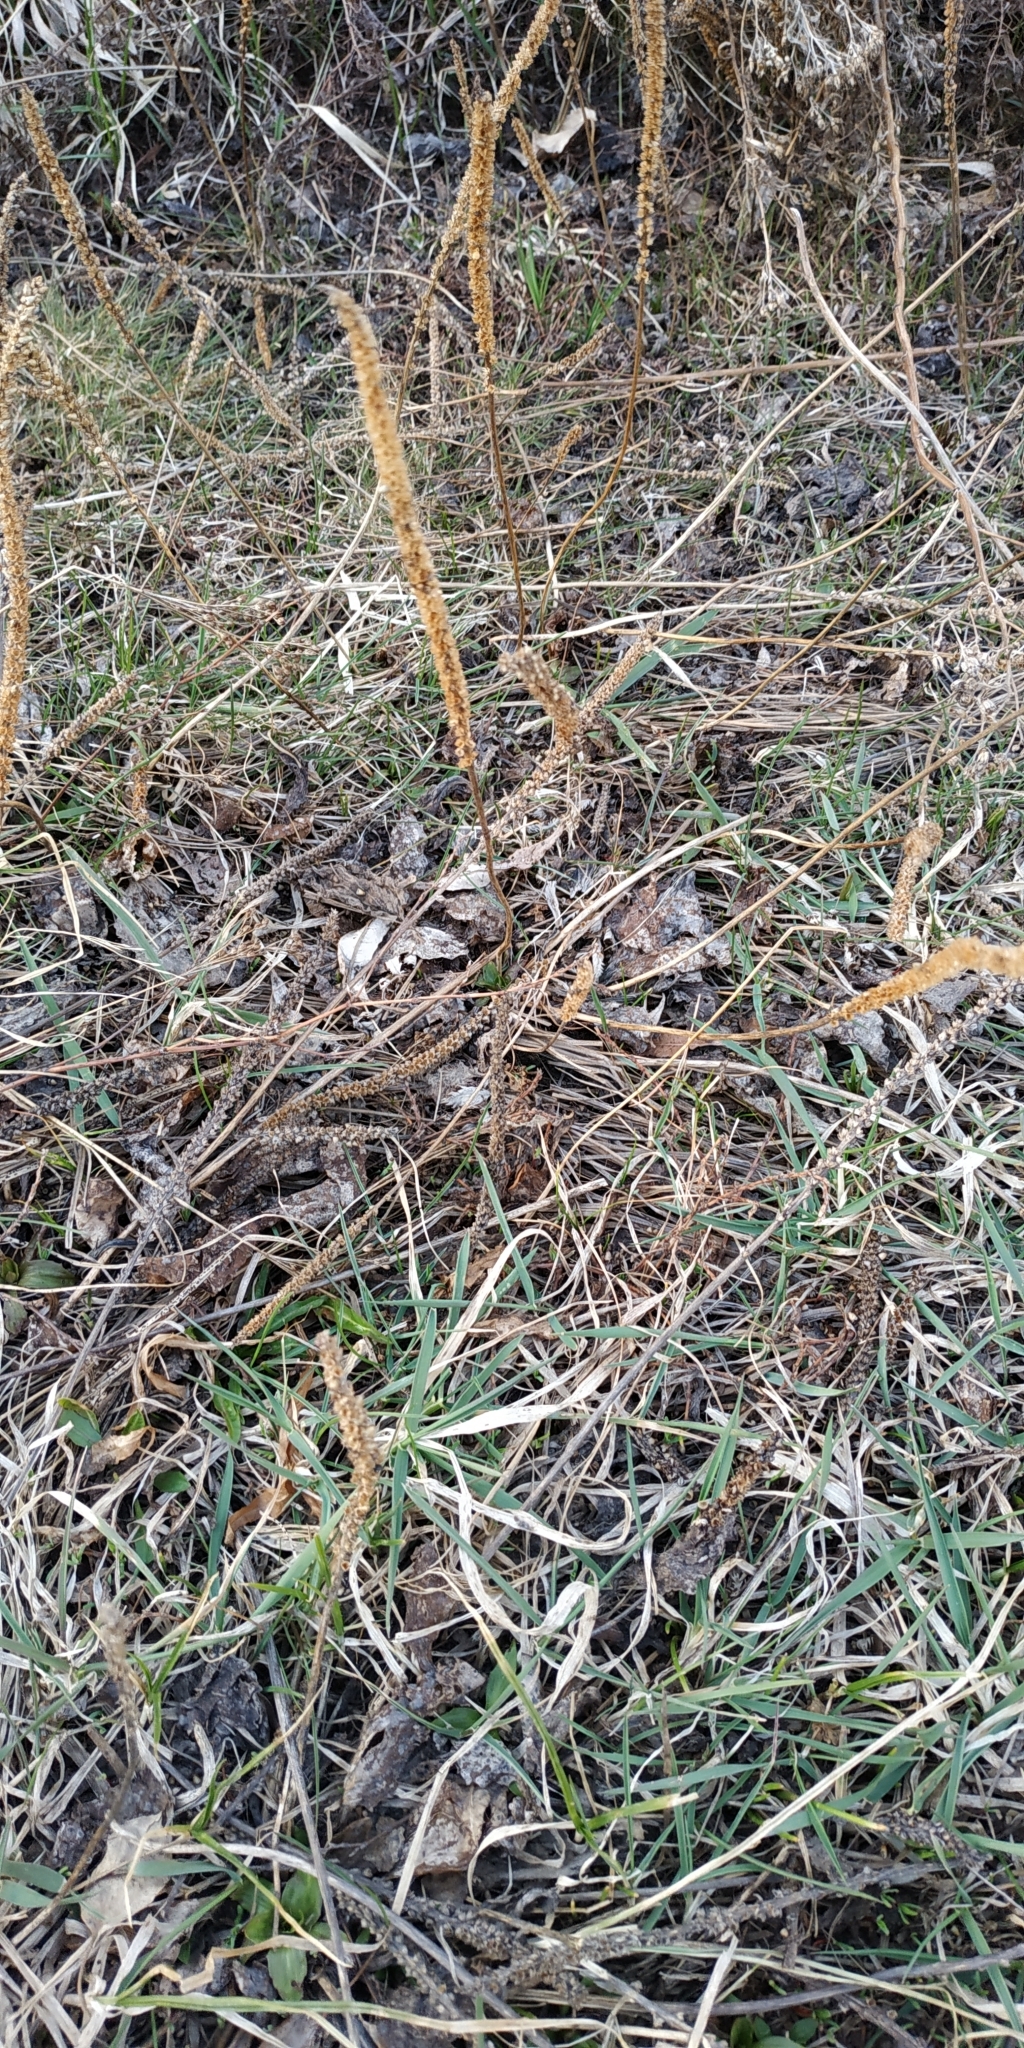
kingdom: Plantae
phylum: Tracheophyta
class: Magnoliopsida
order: Lamiales
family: Plantaginaceae
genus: Plantago
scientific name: Plantago major
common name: Common plantain
